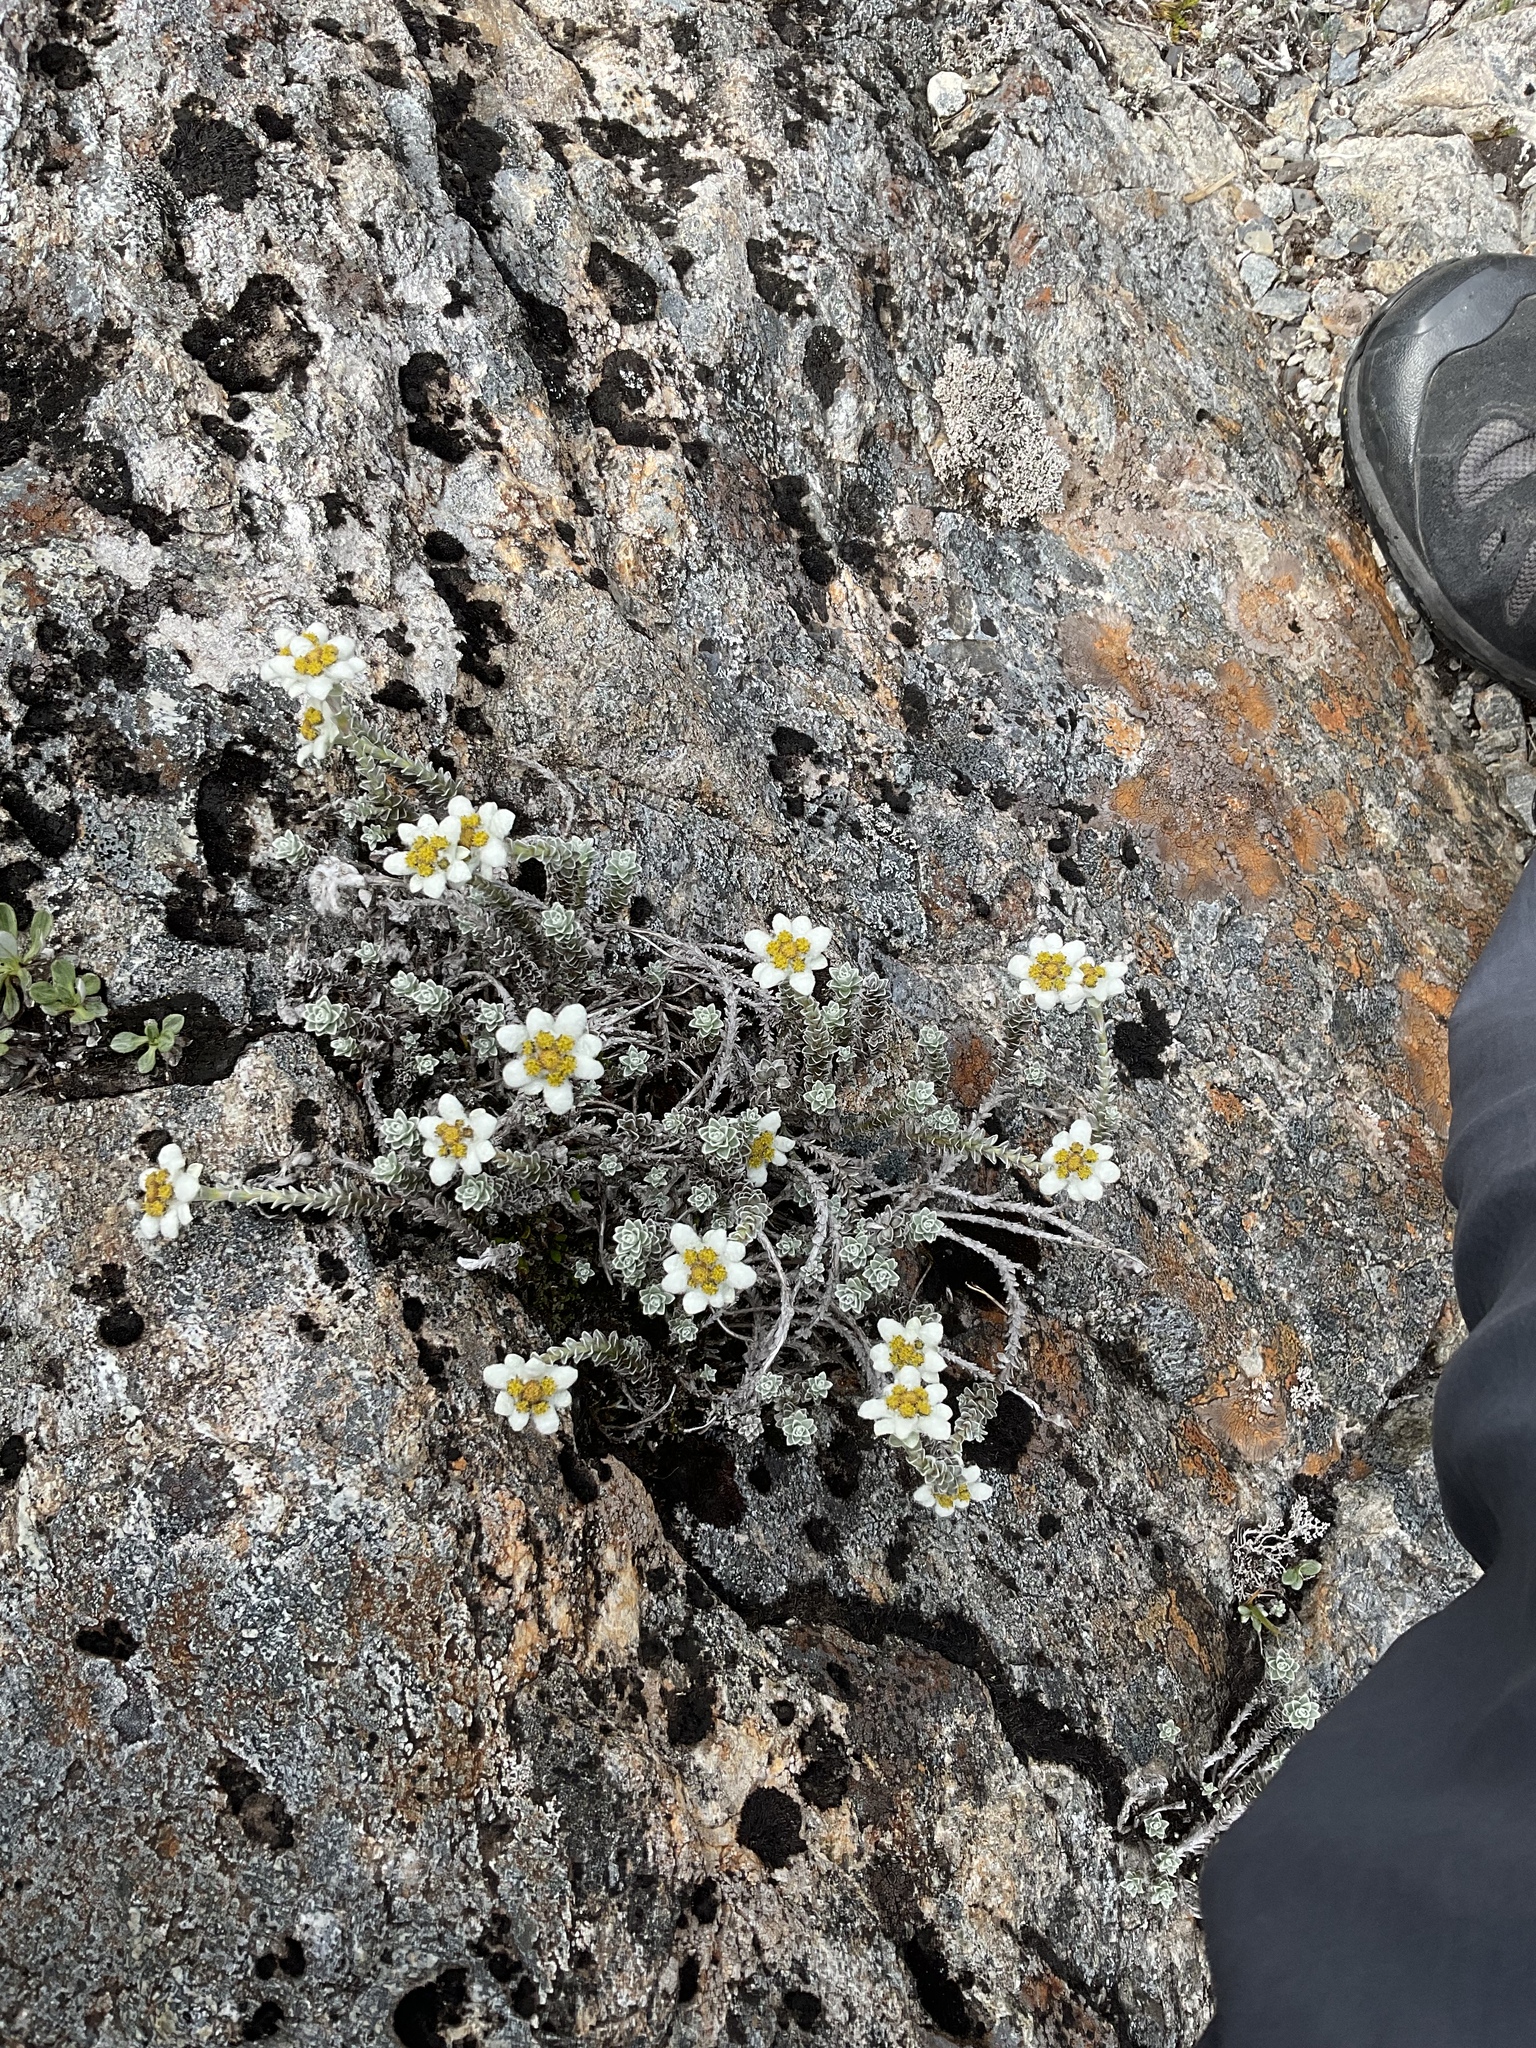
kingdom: Plantae
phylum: Tracheophyta
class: Magnoliopsida
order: Asterales
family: Asteraceae
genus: Leucogenes
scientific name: Leucogenes grandiceps
